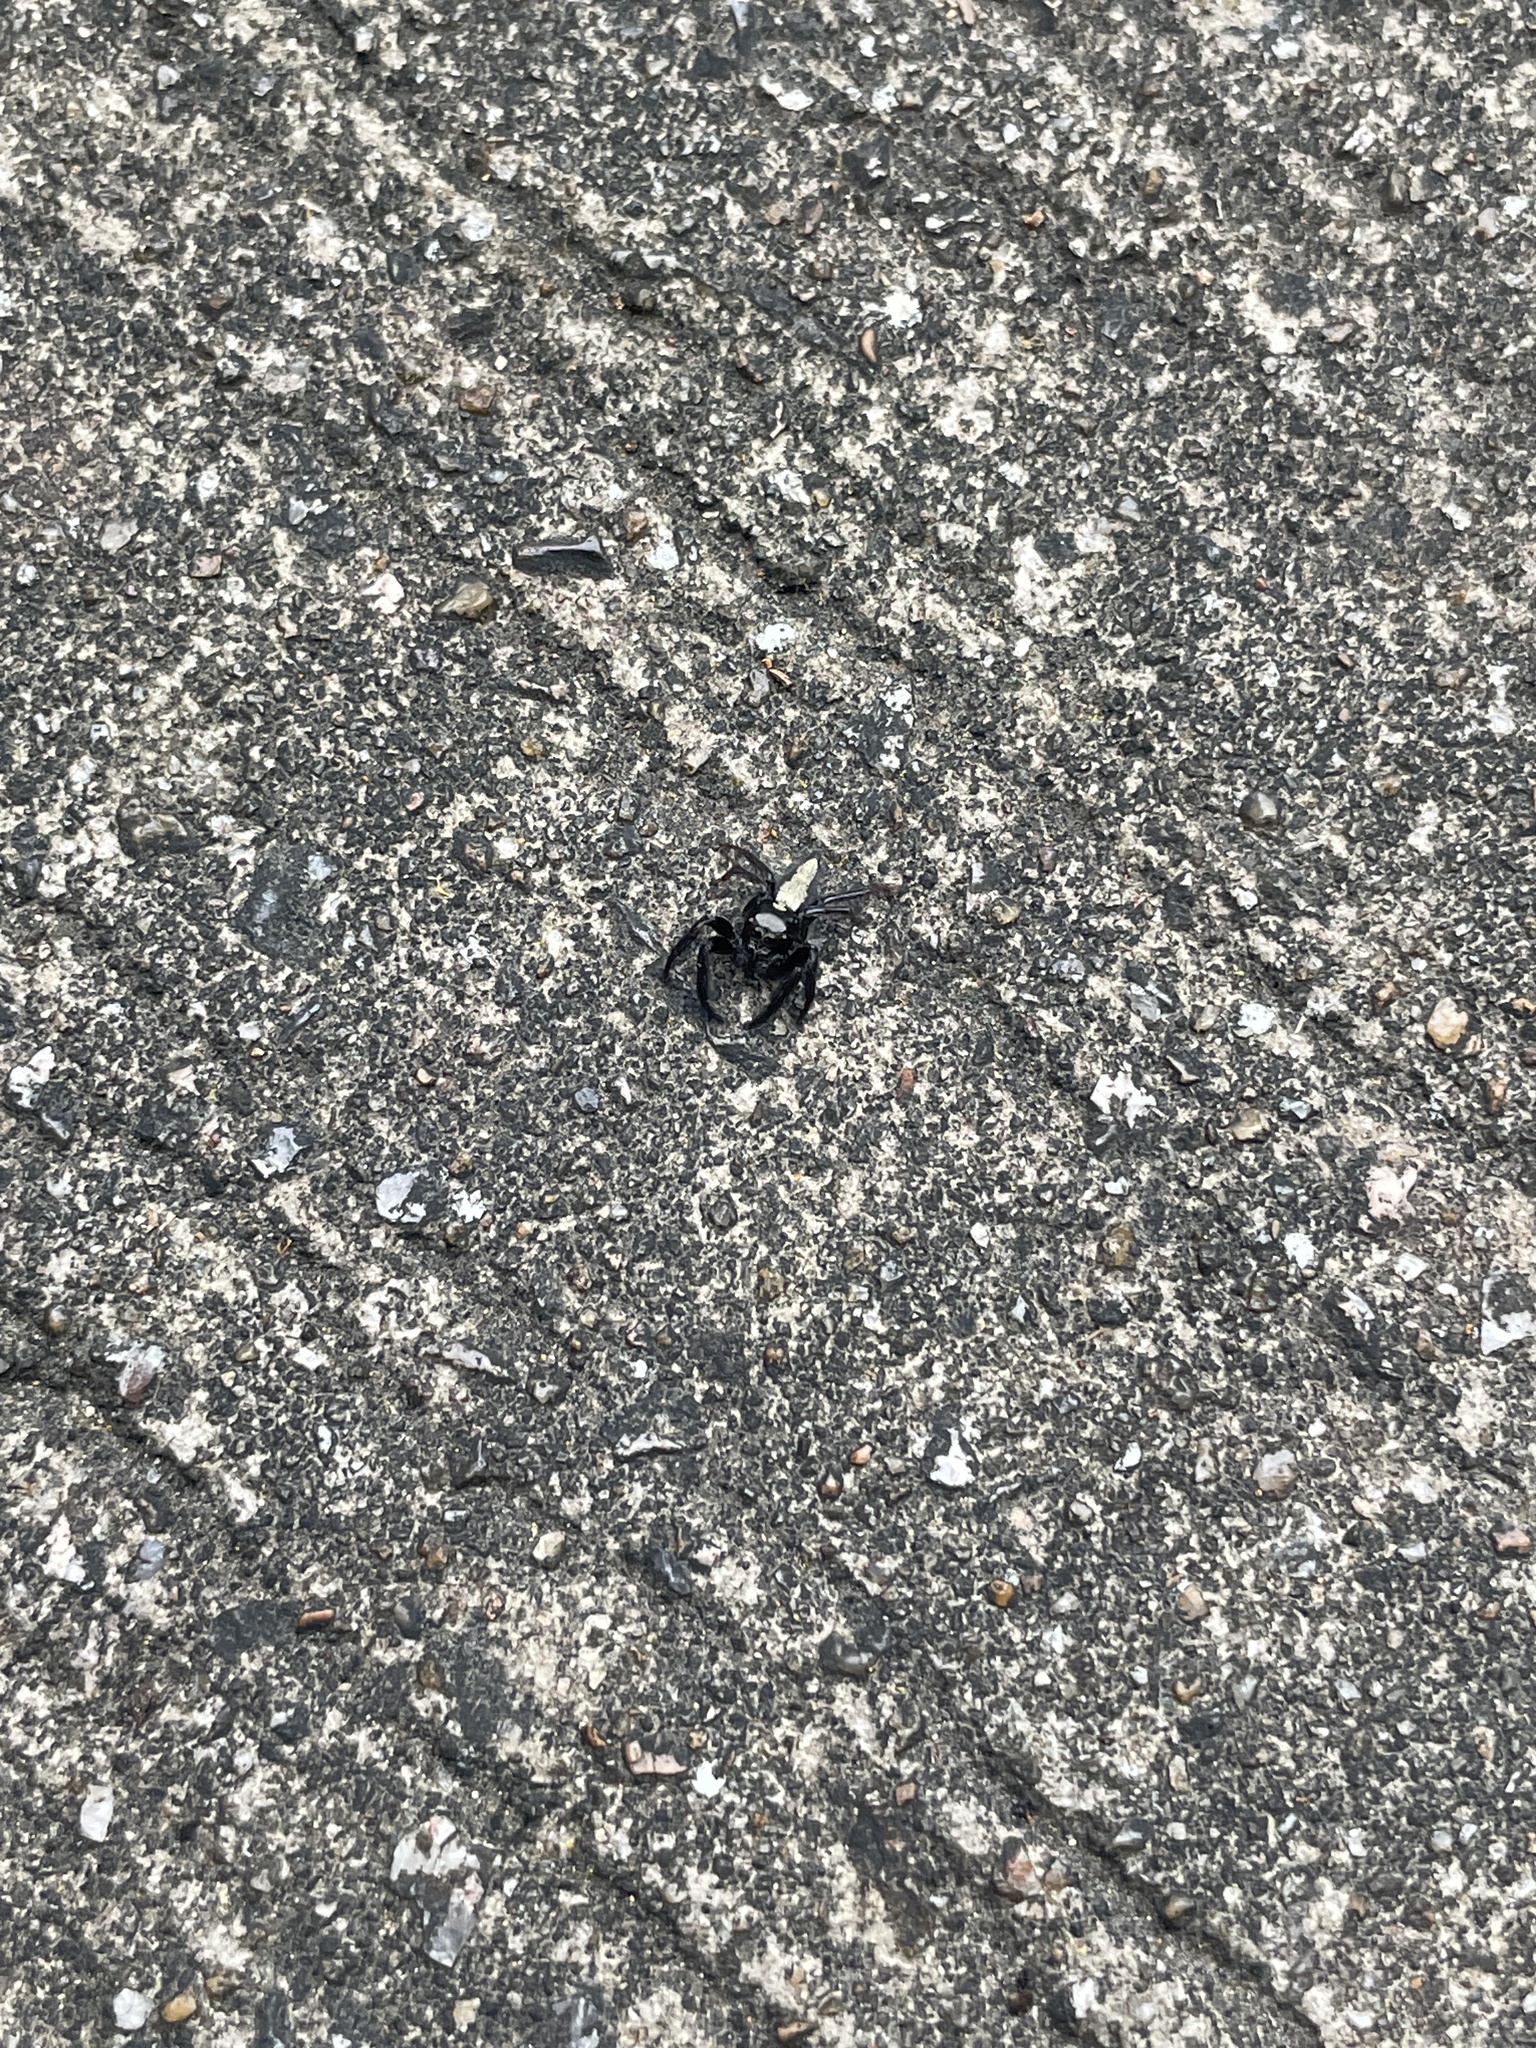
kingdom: Animalia
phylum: Arthropoda
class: Arachnida
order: Araneae
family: Salticidae
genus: Ptocasius
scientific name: Ptocasius strupifer
